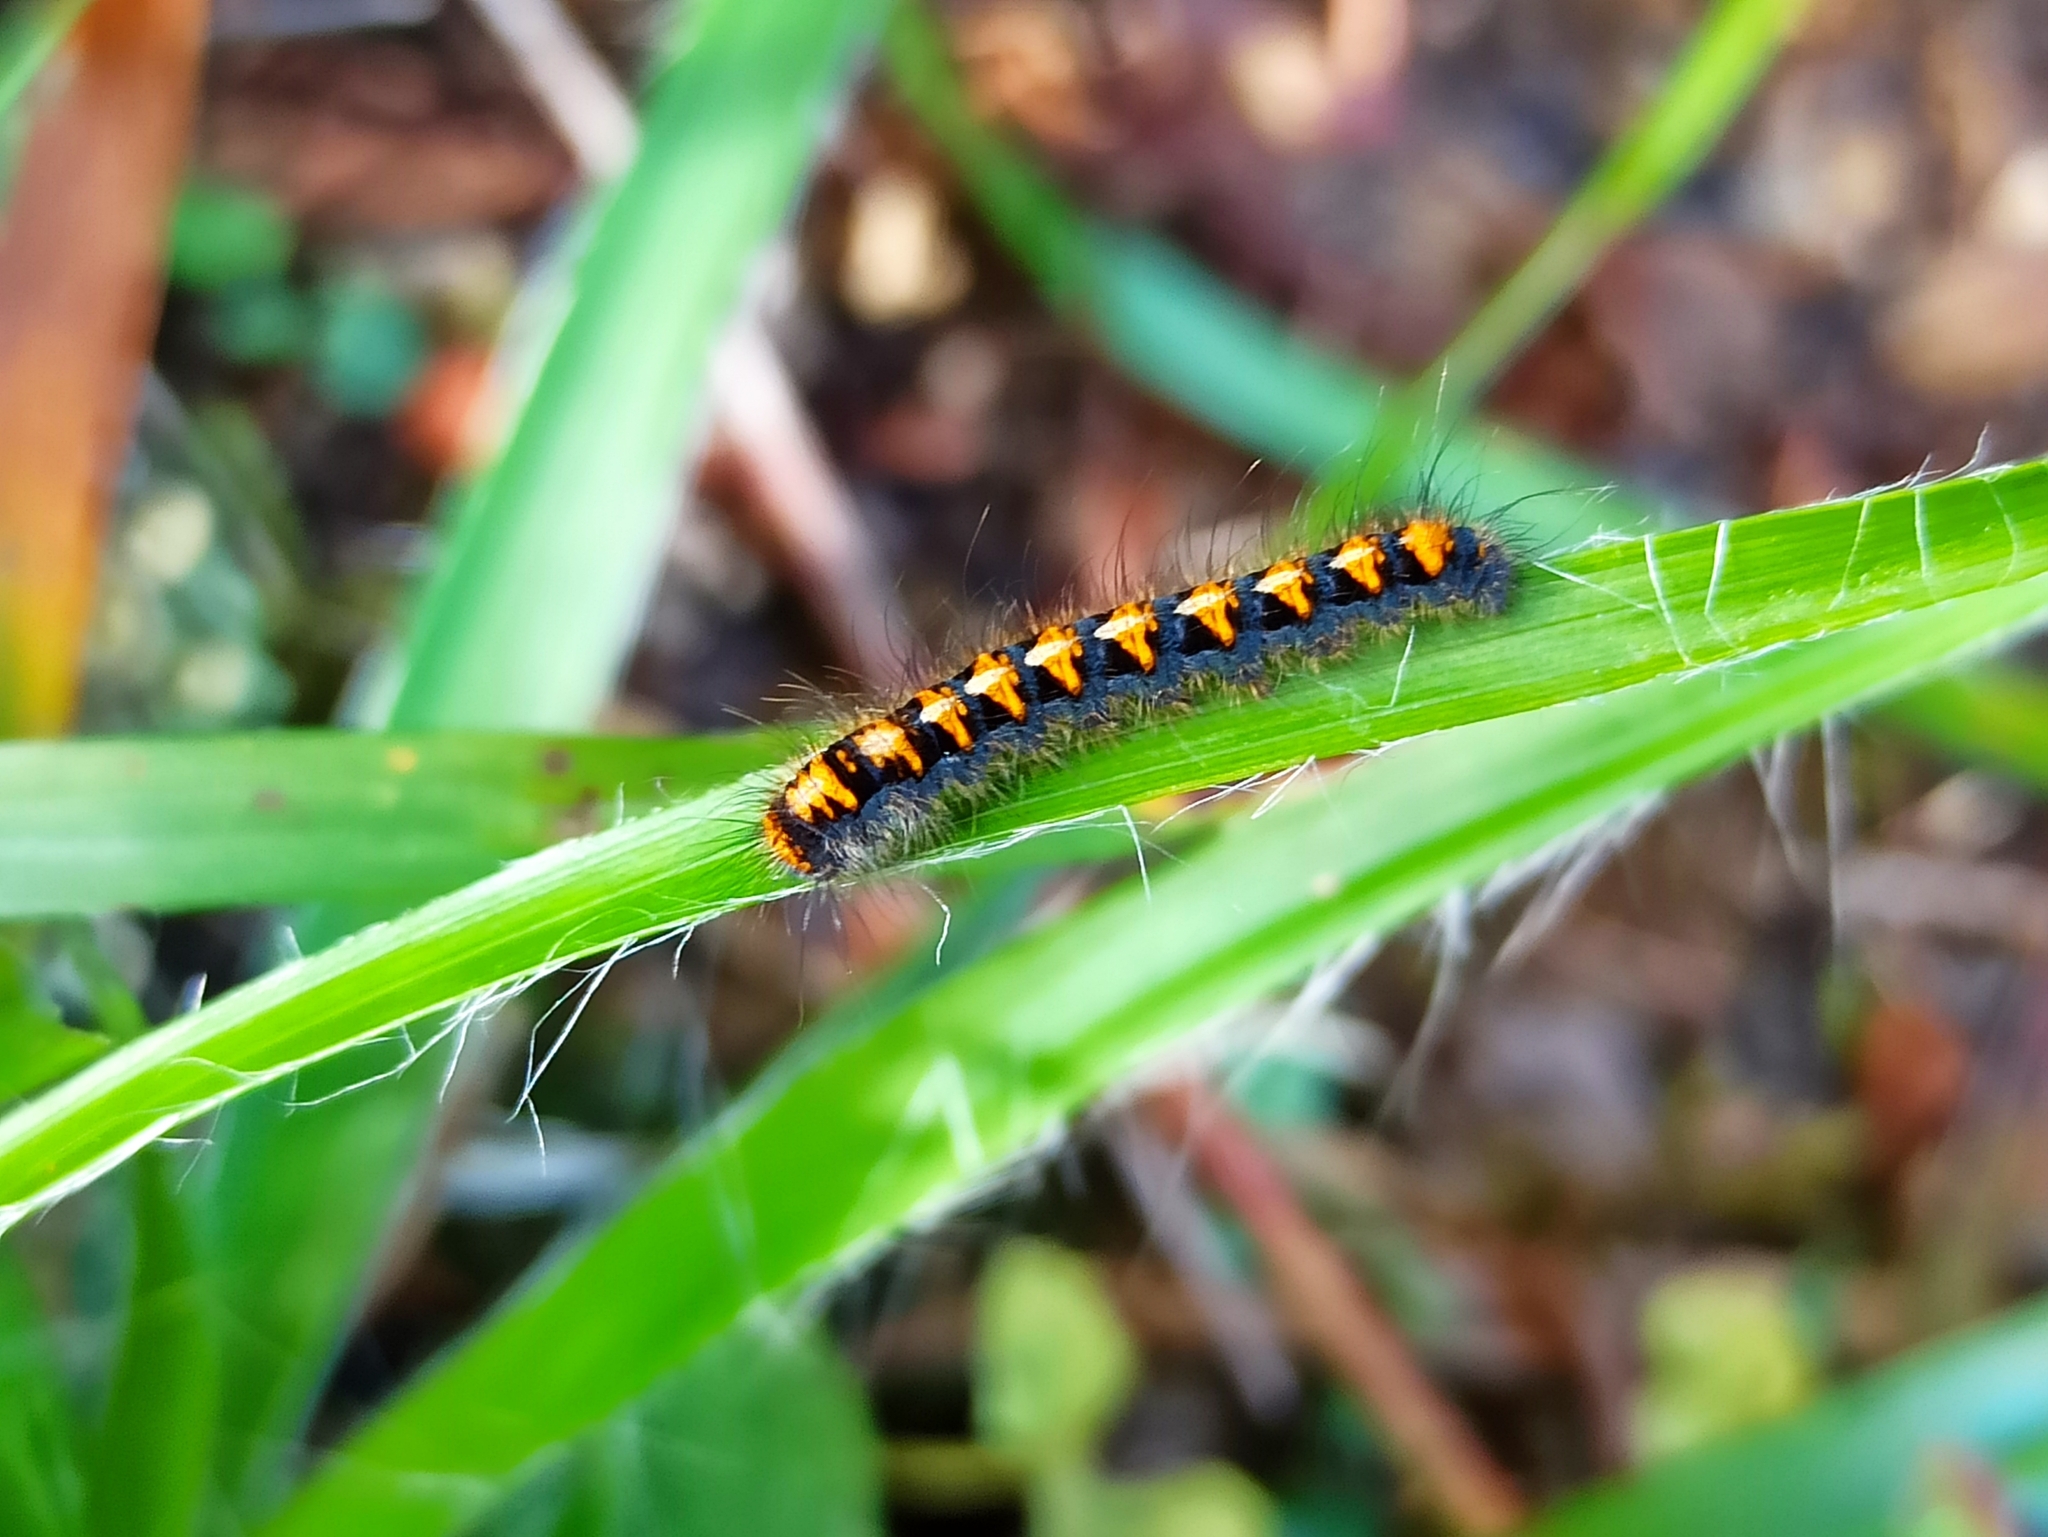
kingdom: Animalia
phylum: Arthropoda
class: Insecta
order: Lepidoptera
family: Lasiocampidae
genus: Lasiocampa
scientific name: Lasiocampa quercus
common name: Oak eggar
